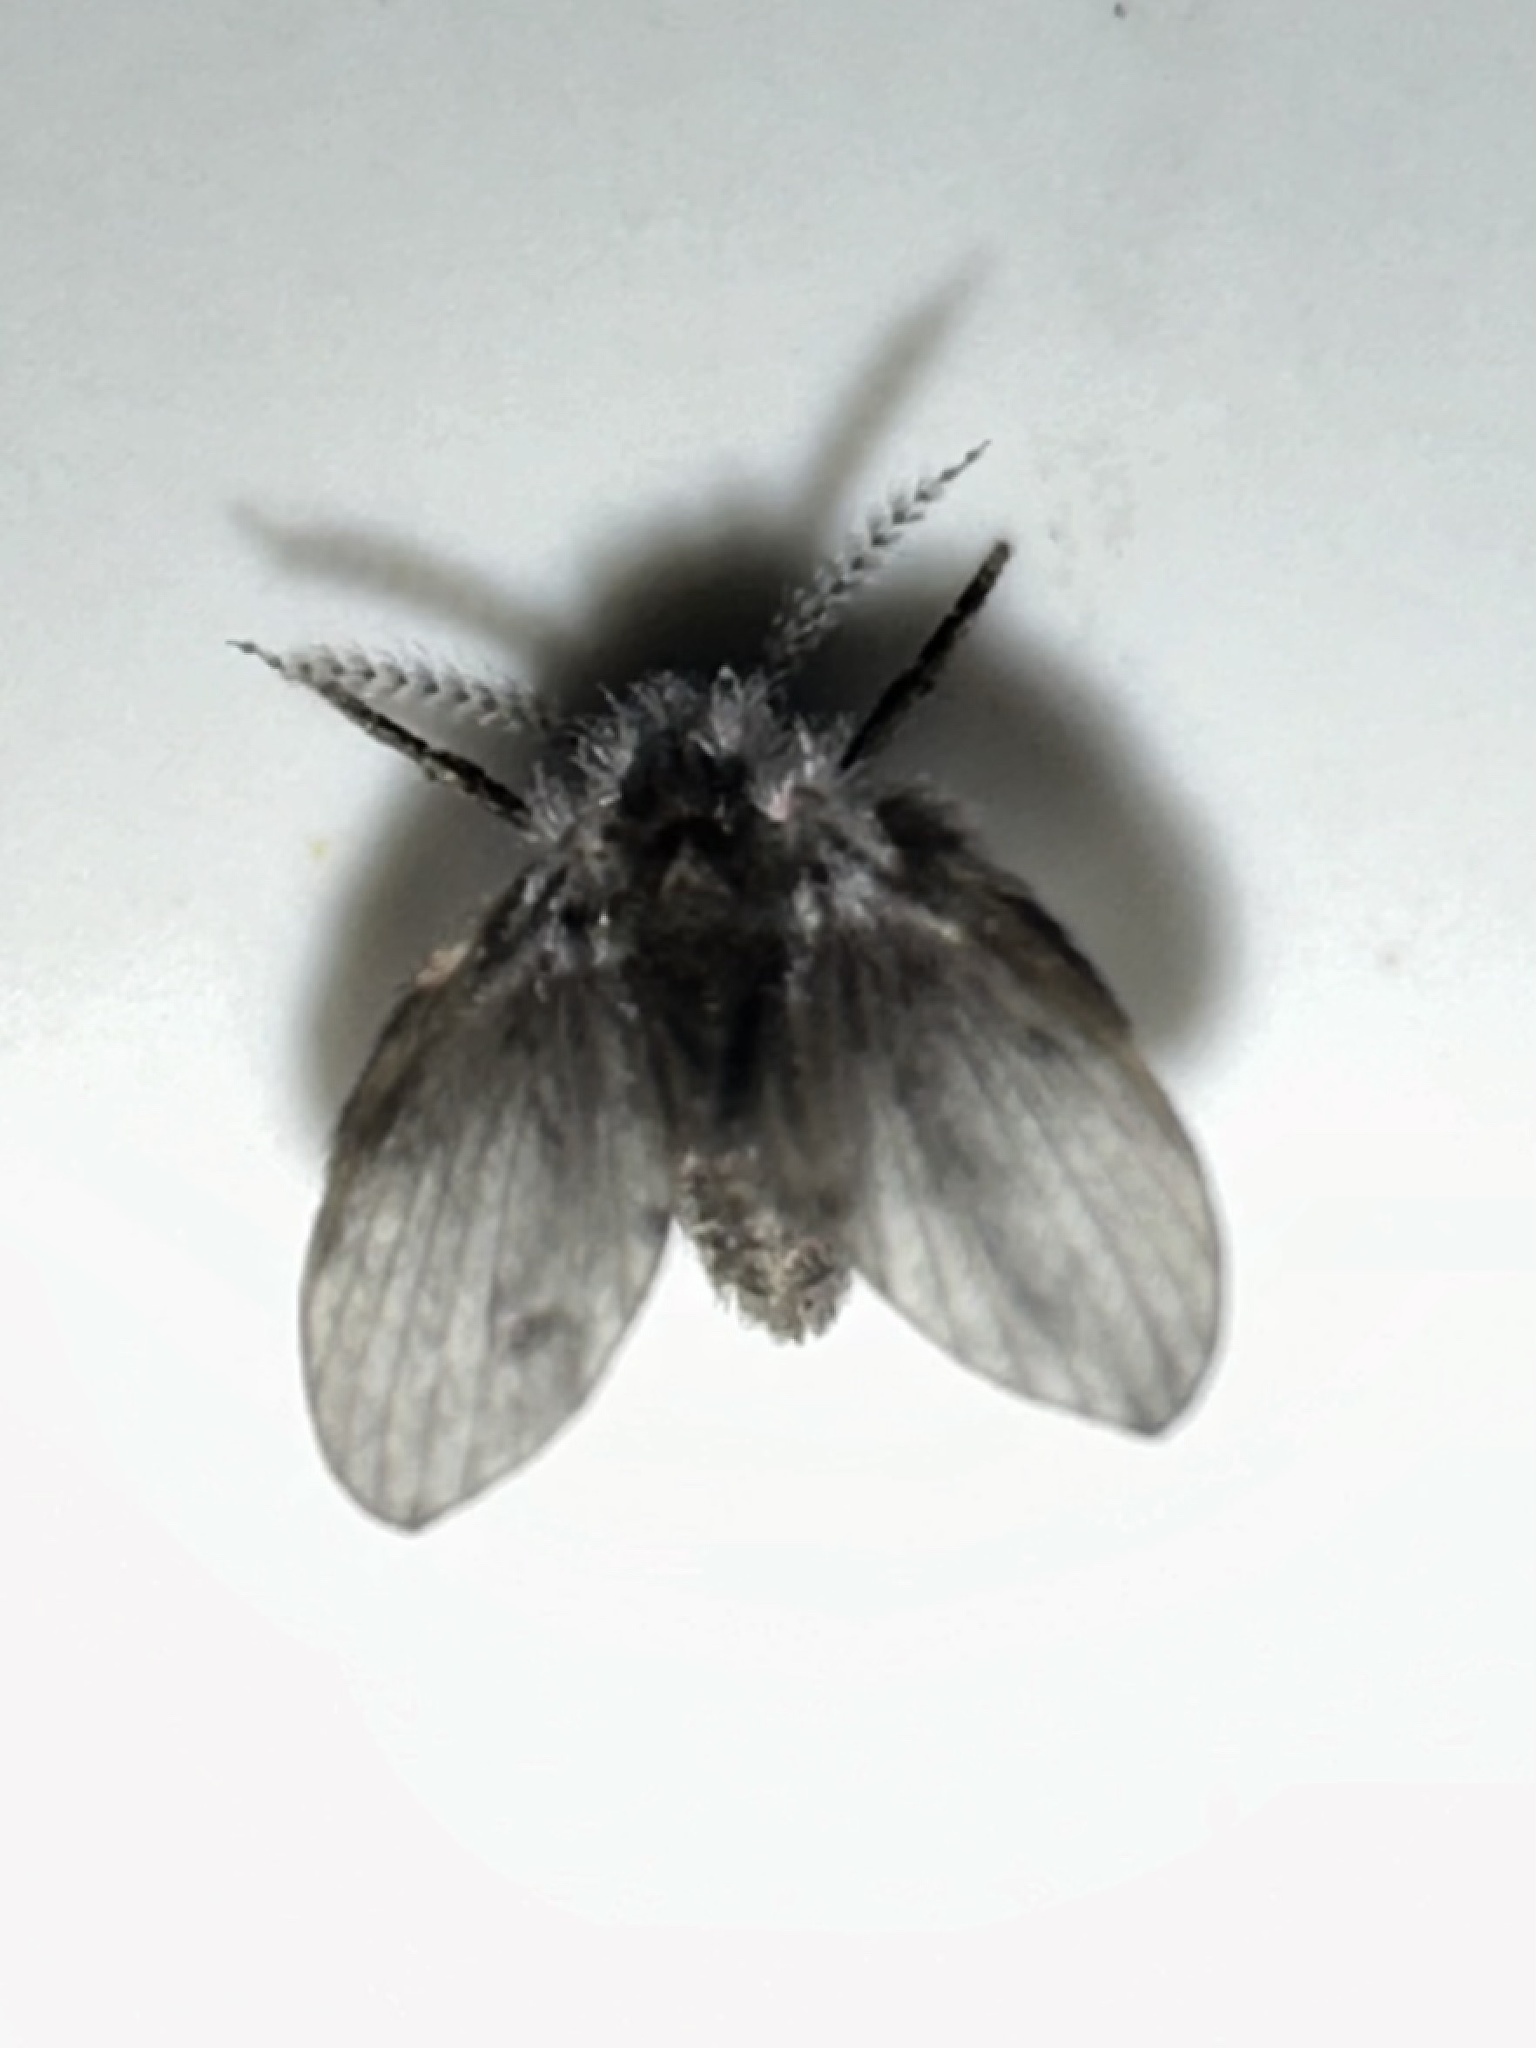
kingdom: Animalia
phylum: Arthropoda
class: Insecta
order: Diptera
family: Psychodidae
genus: Clogmia
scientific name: Clogmia albipunctatus
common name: White-spotted moth fly
